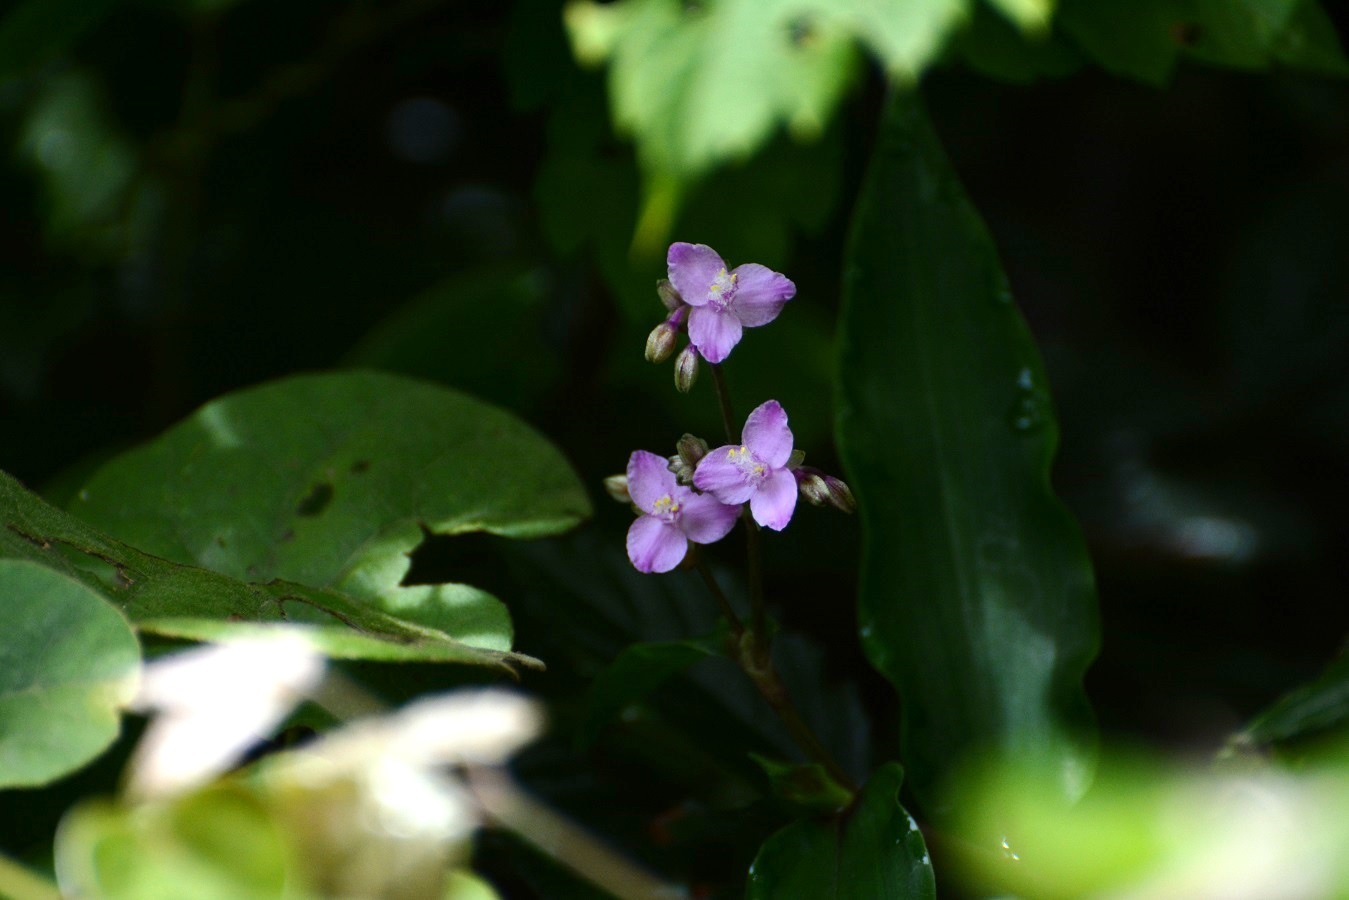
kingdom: Plantae
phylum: Tracheophyta
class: Liliopsida
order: Commelinales
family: Commelinaceae
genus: Callisia
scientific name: Callisia amplexicaulis
